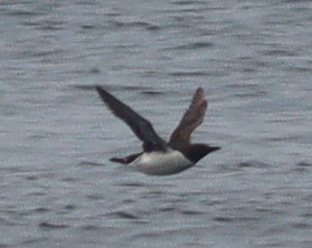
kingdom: Animalia
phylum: Chordata
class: Aves
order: Charadriiformes
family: Alcidae
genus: Uria
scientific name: Uria aalge
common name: Common murre
